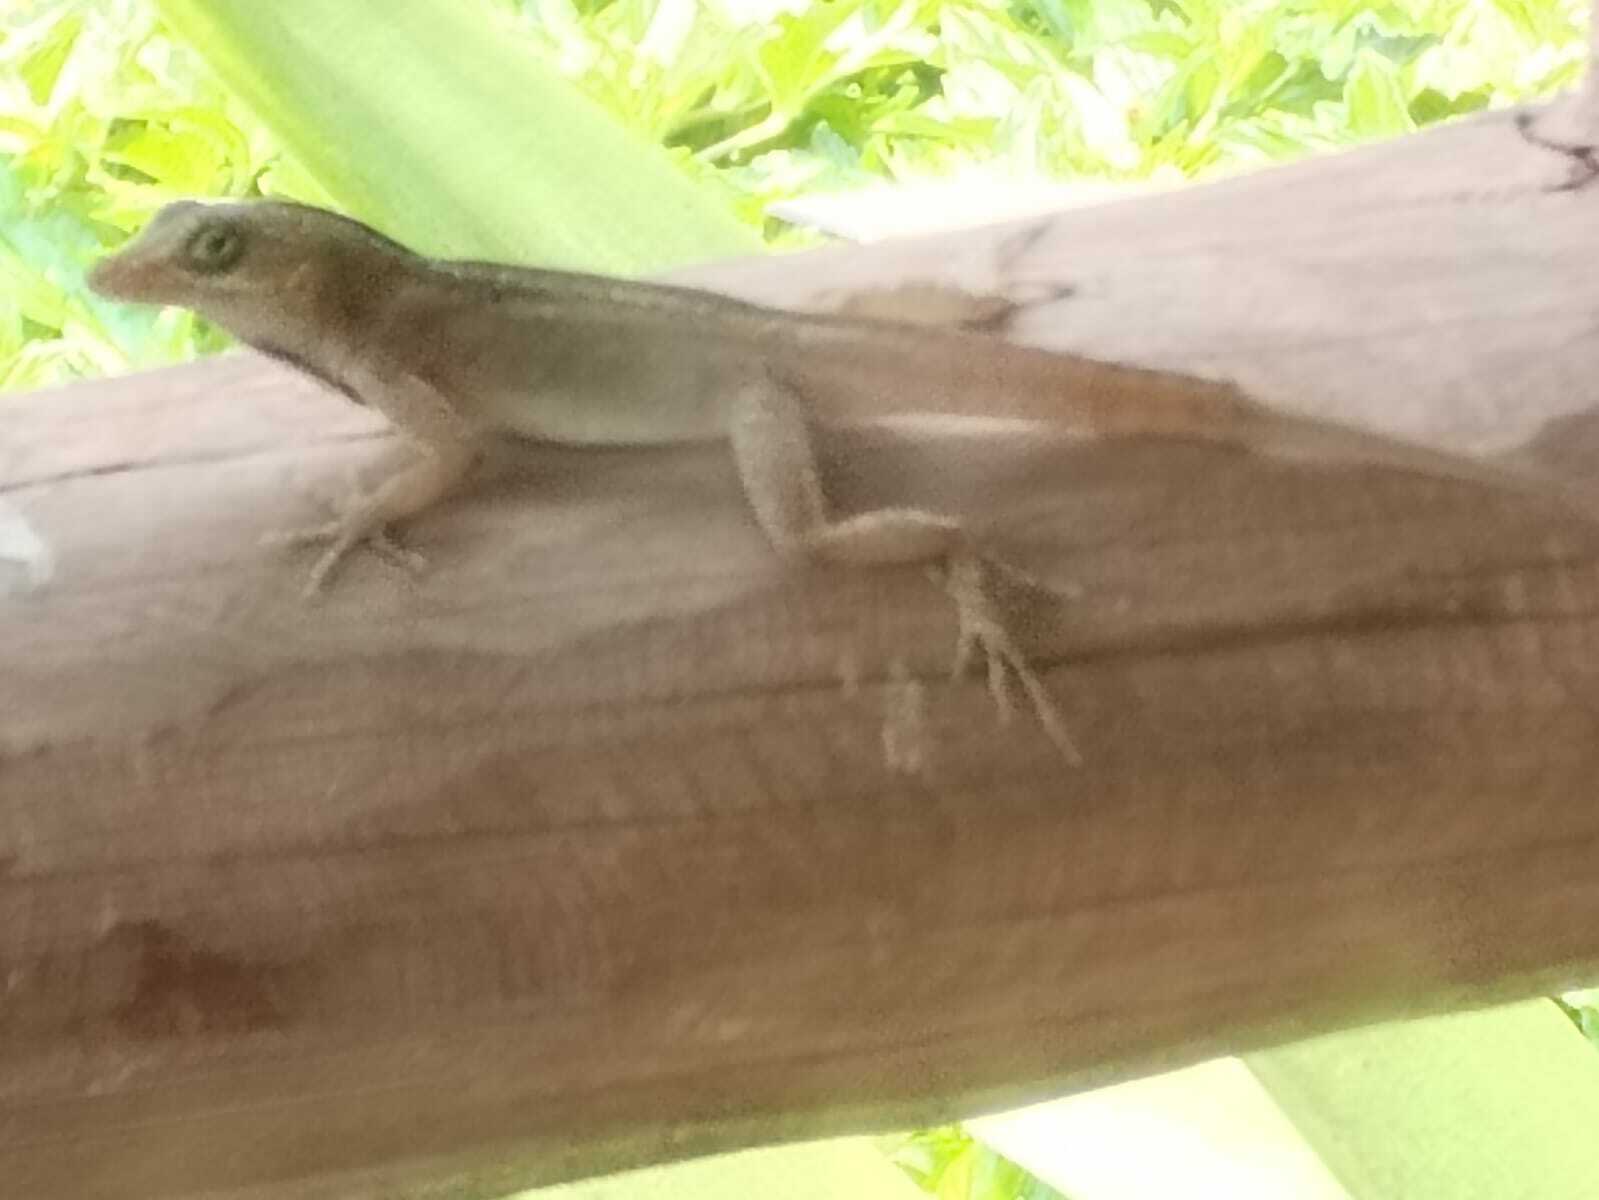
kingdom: Animalia
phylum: Chordata
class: Squamata
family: Dactyloidae
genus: Anolis
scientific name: Anolis sagrei
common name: Brown anole
